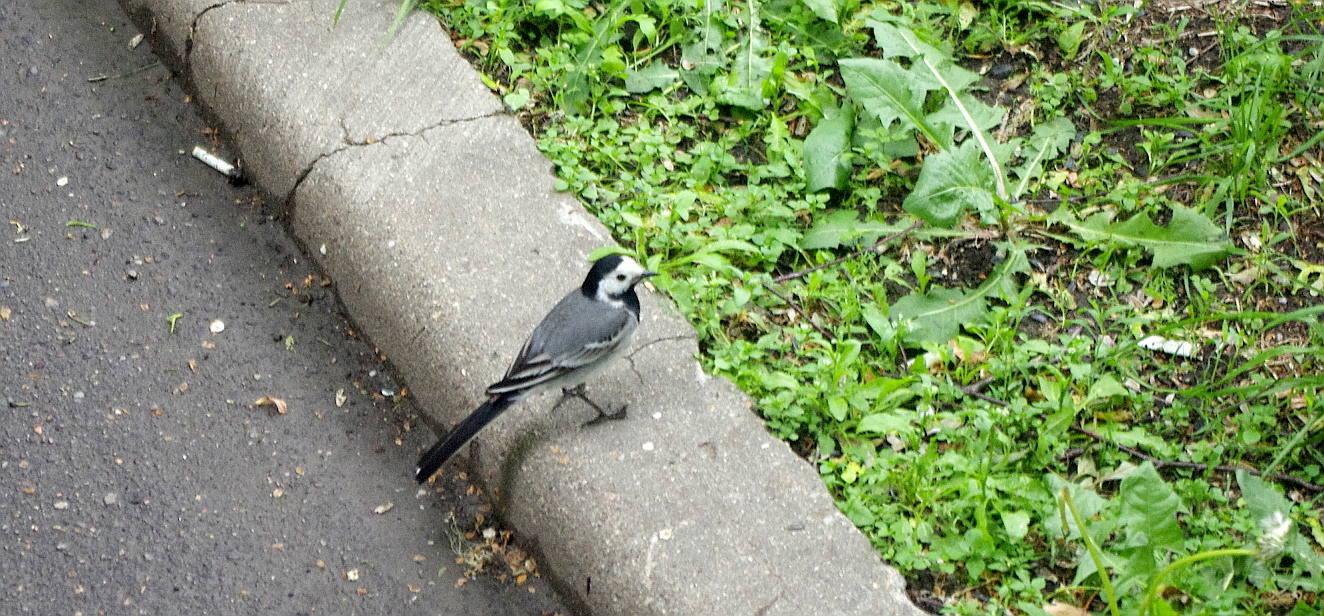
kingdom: Animalia
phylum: Chordata
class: Aves
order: Passeriformes
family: Motacillidae
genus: Motacilla
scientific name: Motacilla alba
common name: White wagtail
